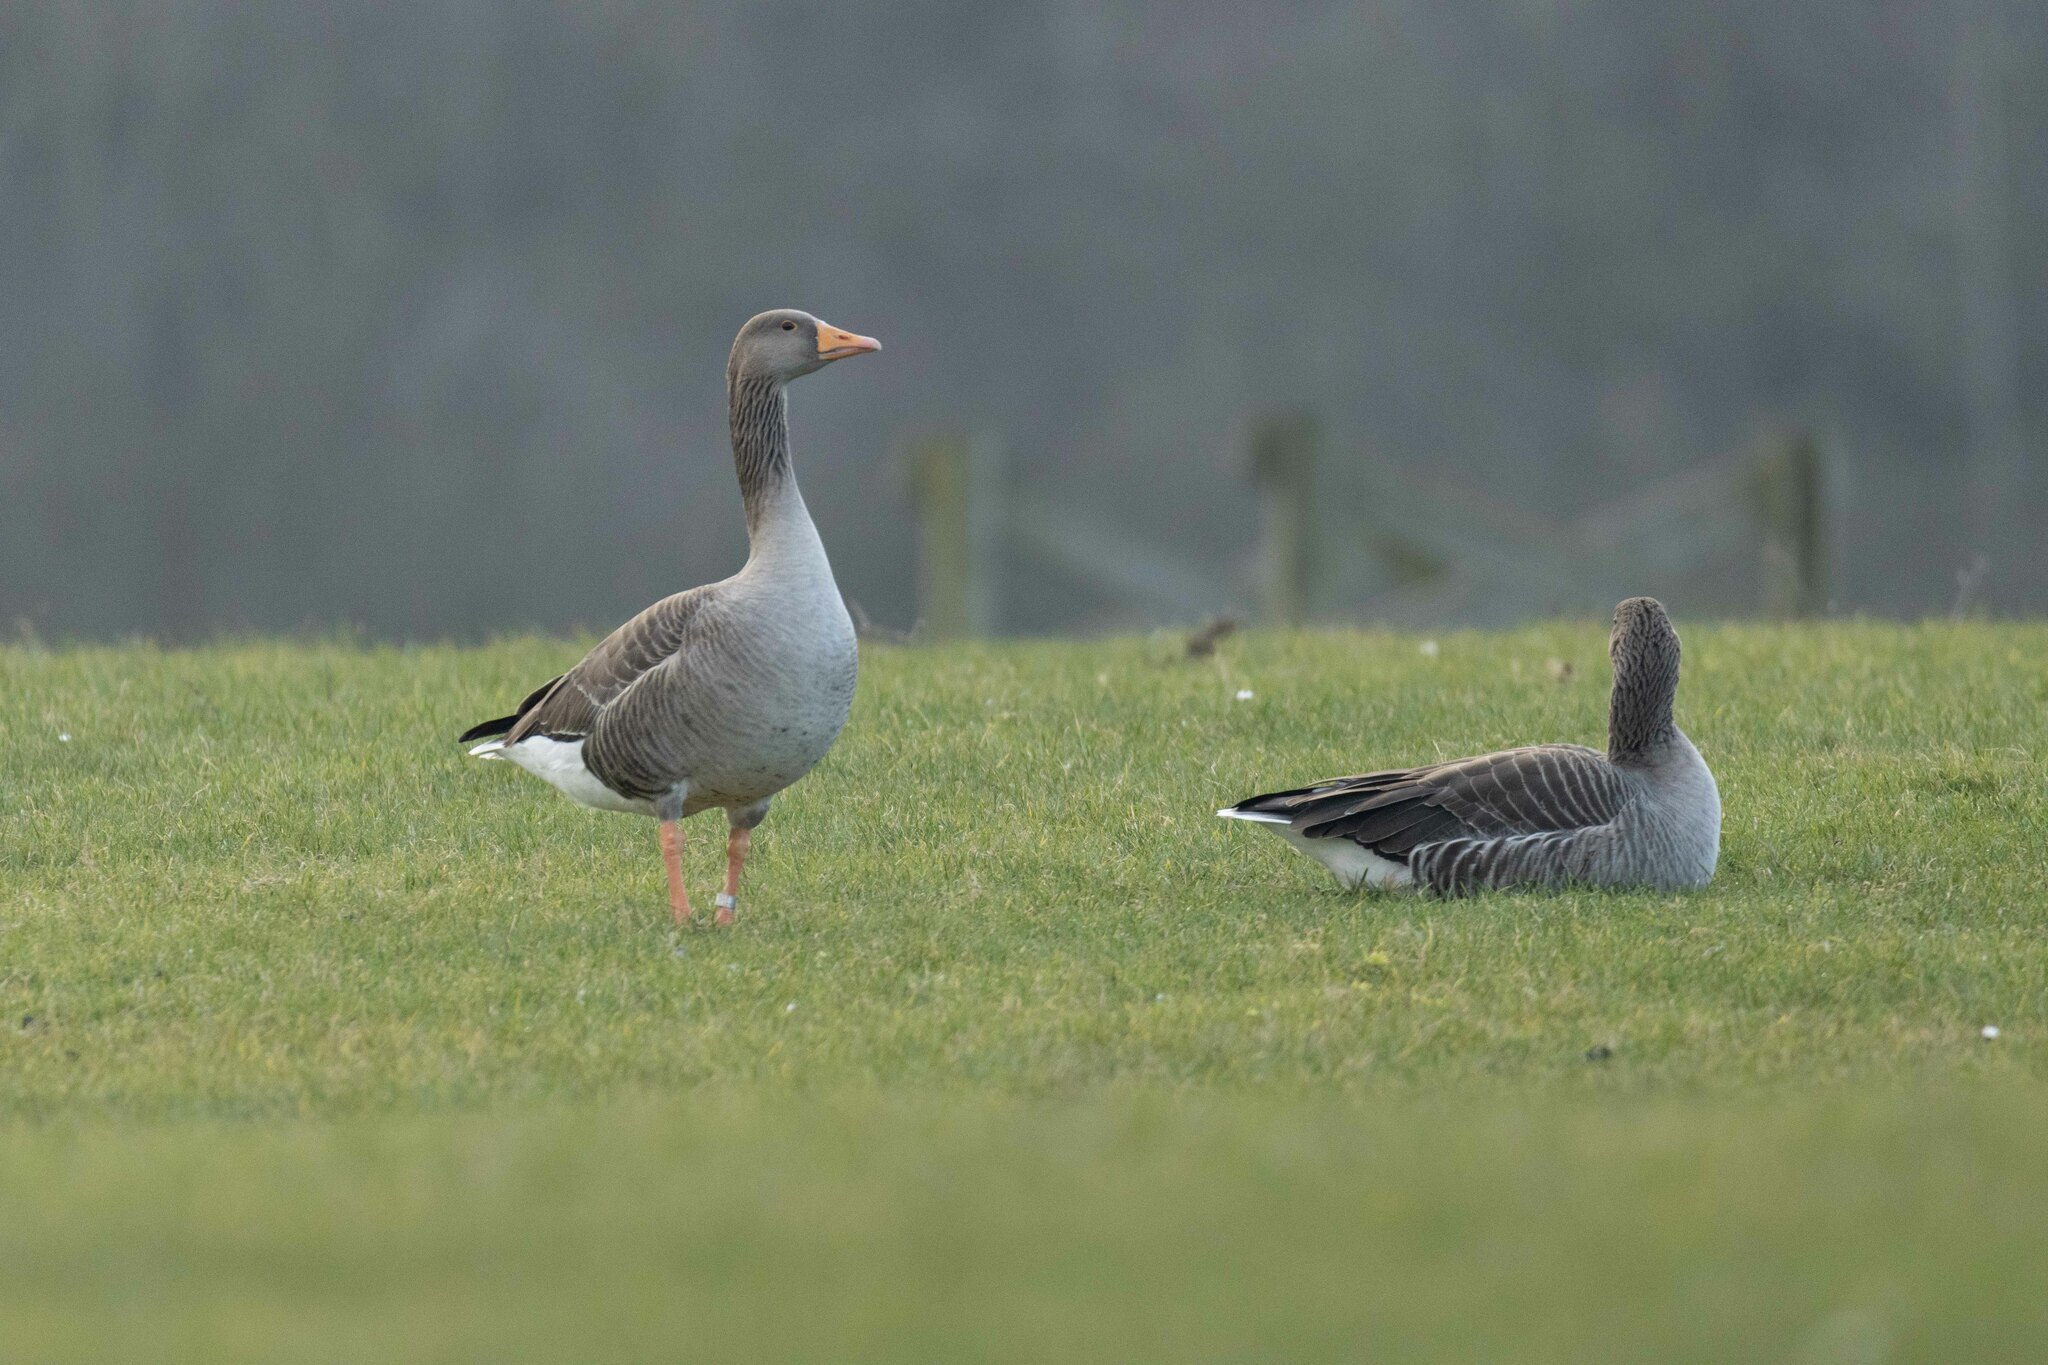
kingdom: Animalia
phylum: Chordata
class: Aves
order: Anseriformes
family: Anatidae
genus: Anser
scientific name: Anser anser
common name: Greylag goose
